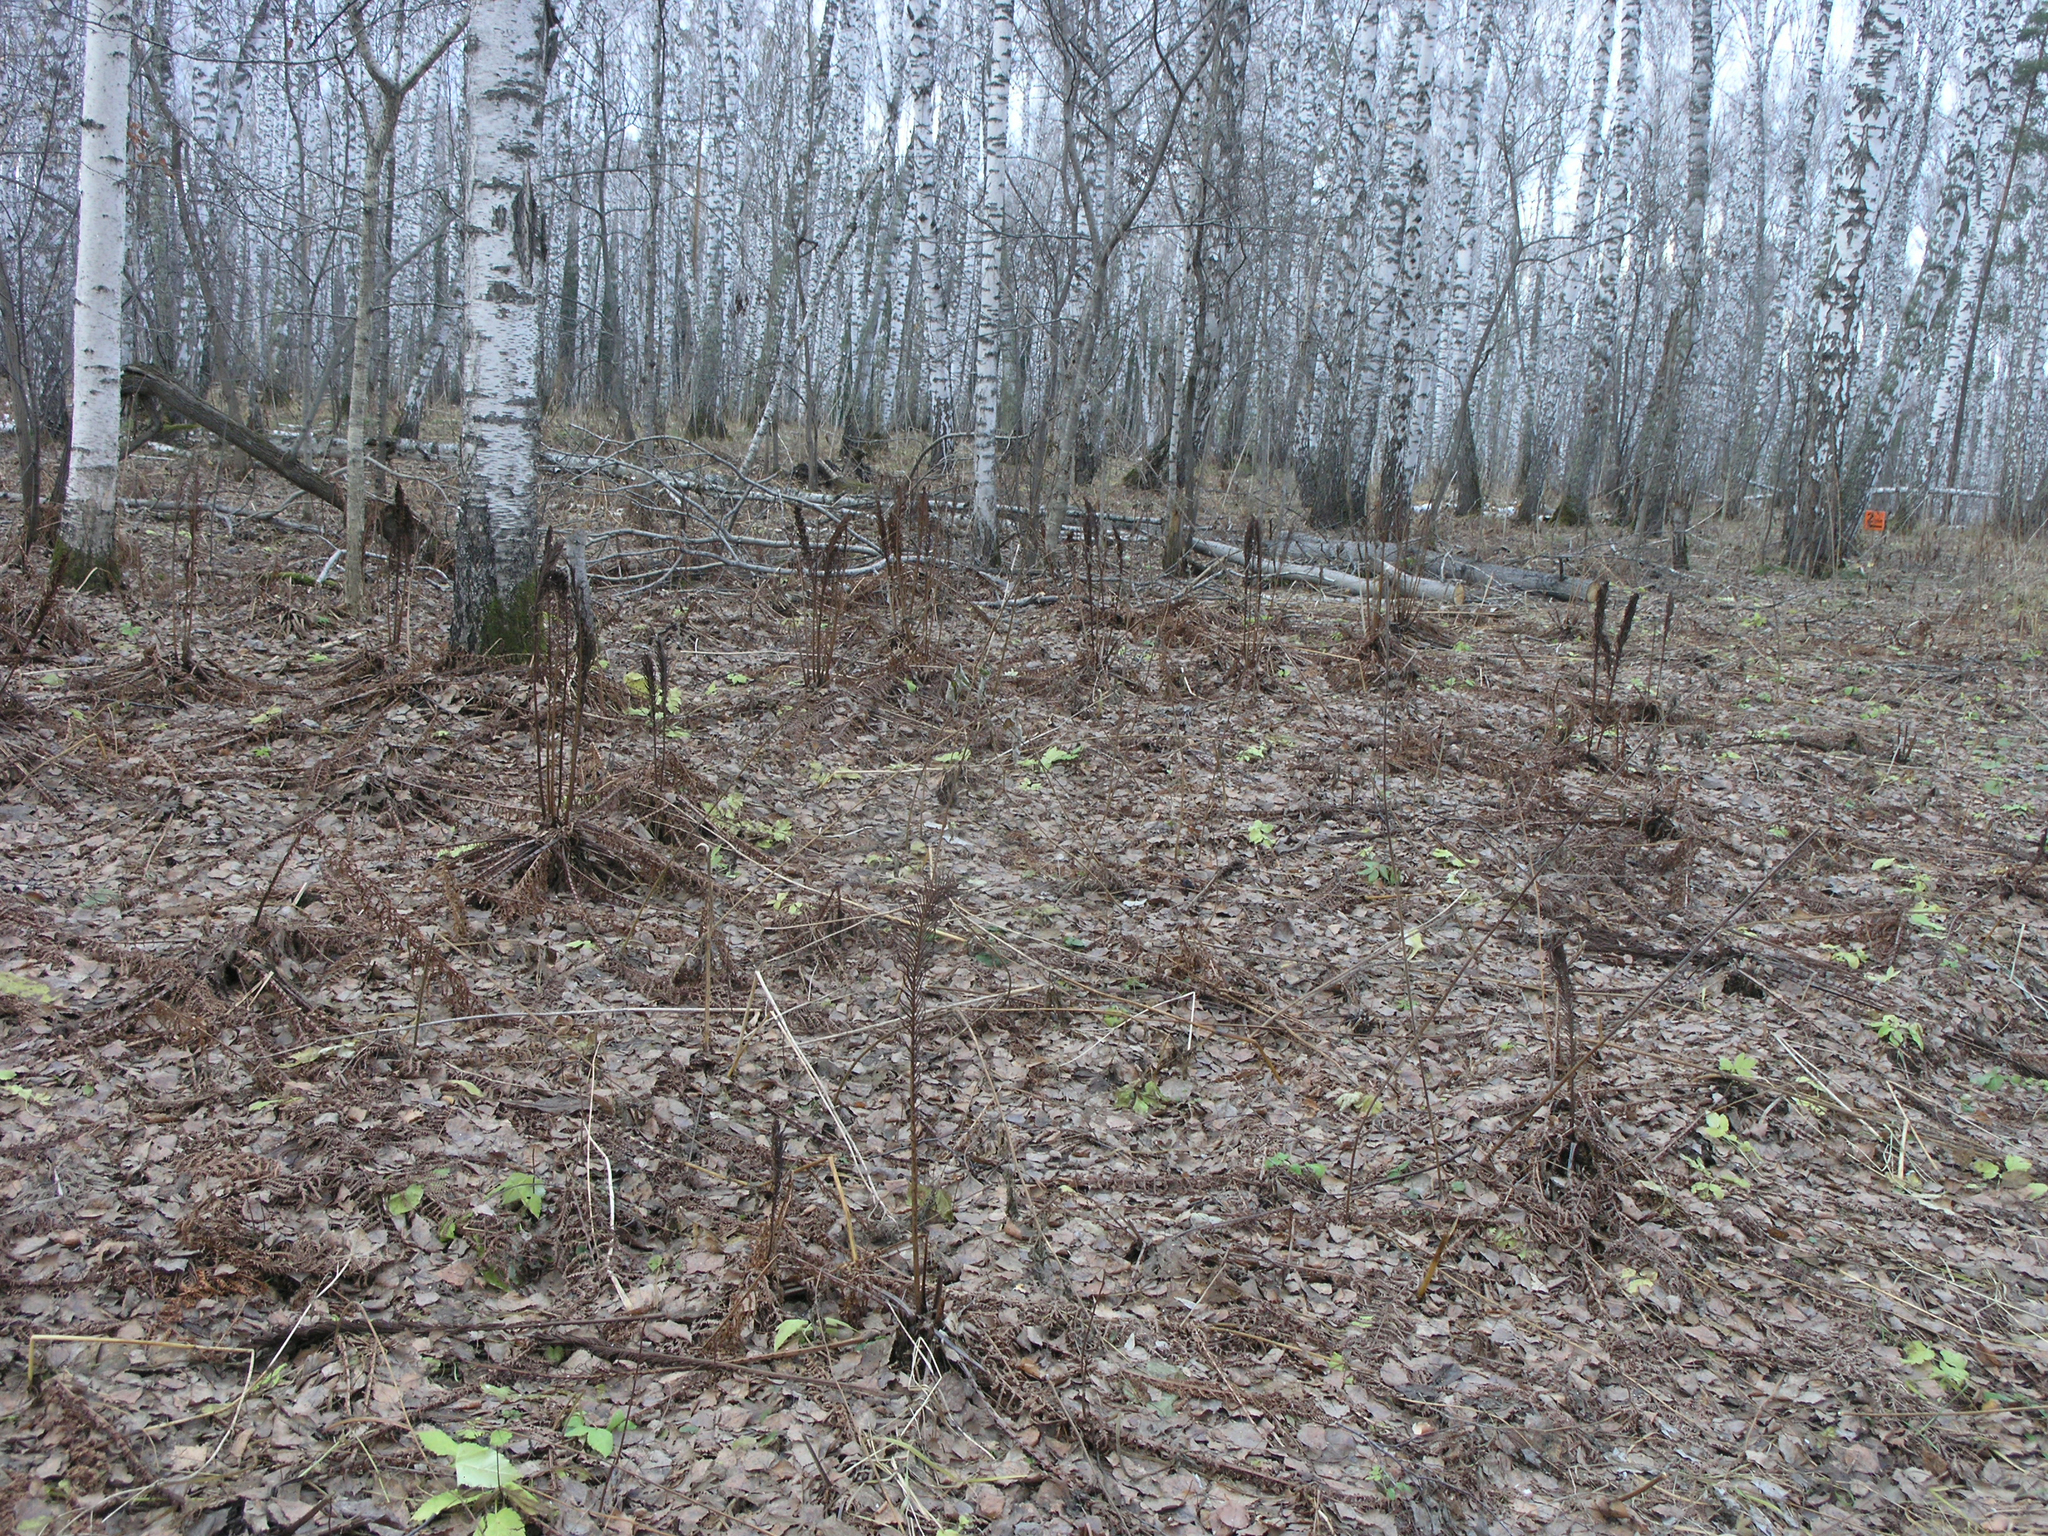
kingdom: Plantae
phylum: Tracheophyta
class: Polypodiopsida
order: Polypodiales
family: Onocleaceae
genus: Matteuccia
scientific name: Matteuccia struthiopteris
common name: Ostrich fern
